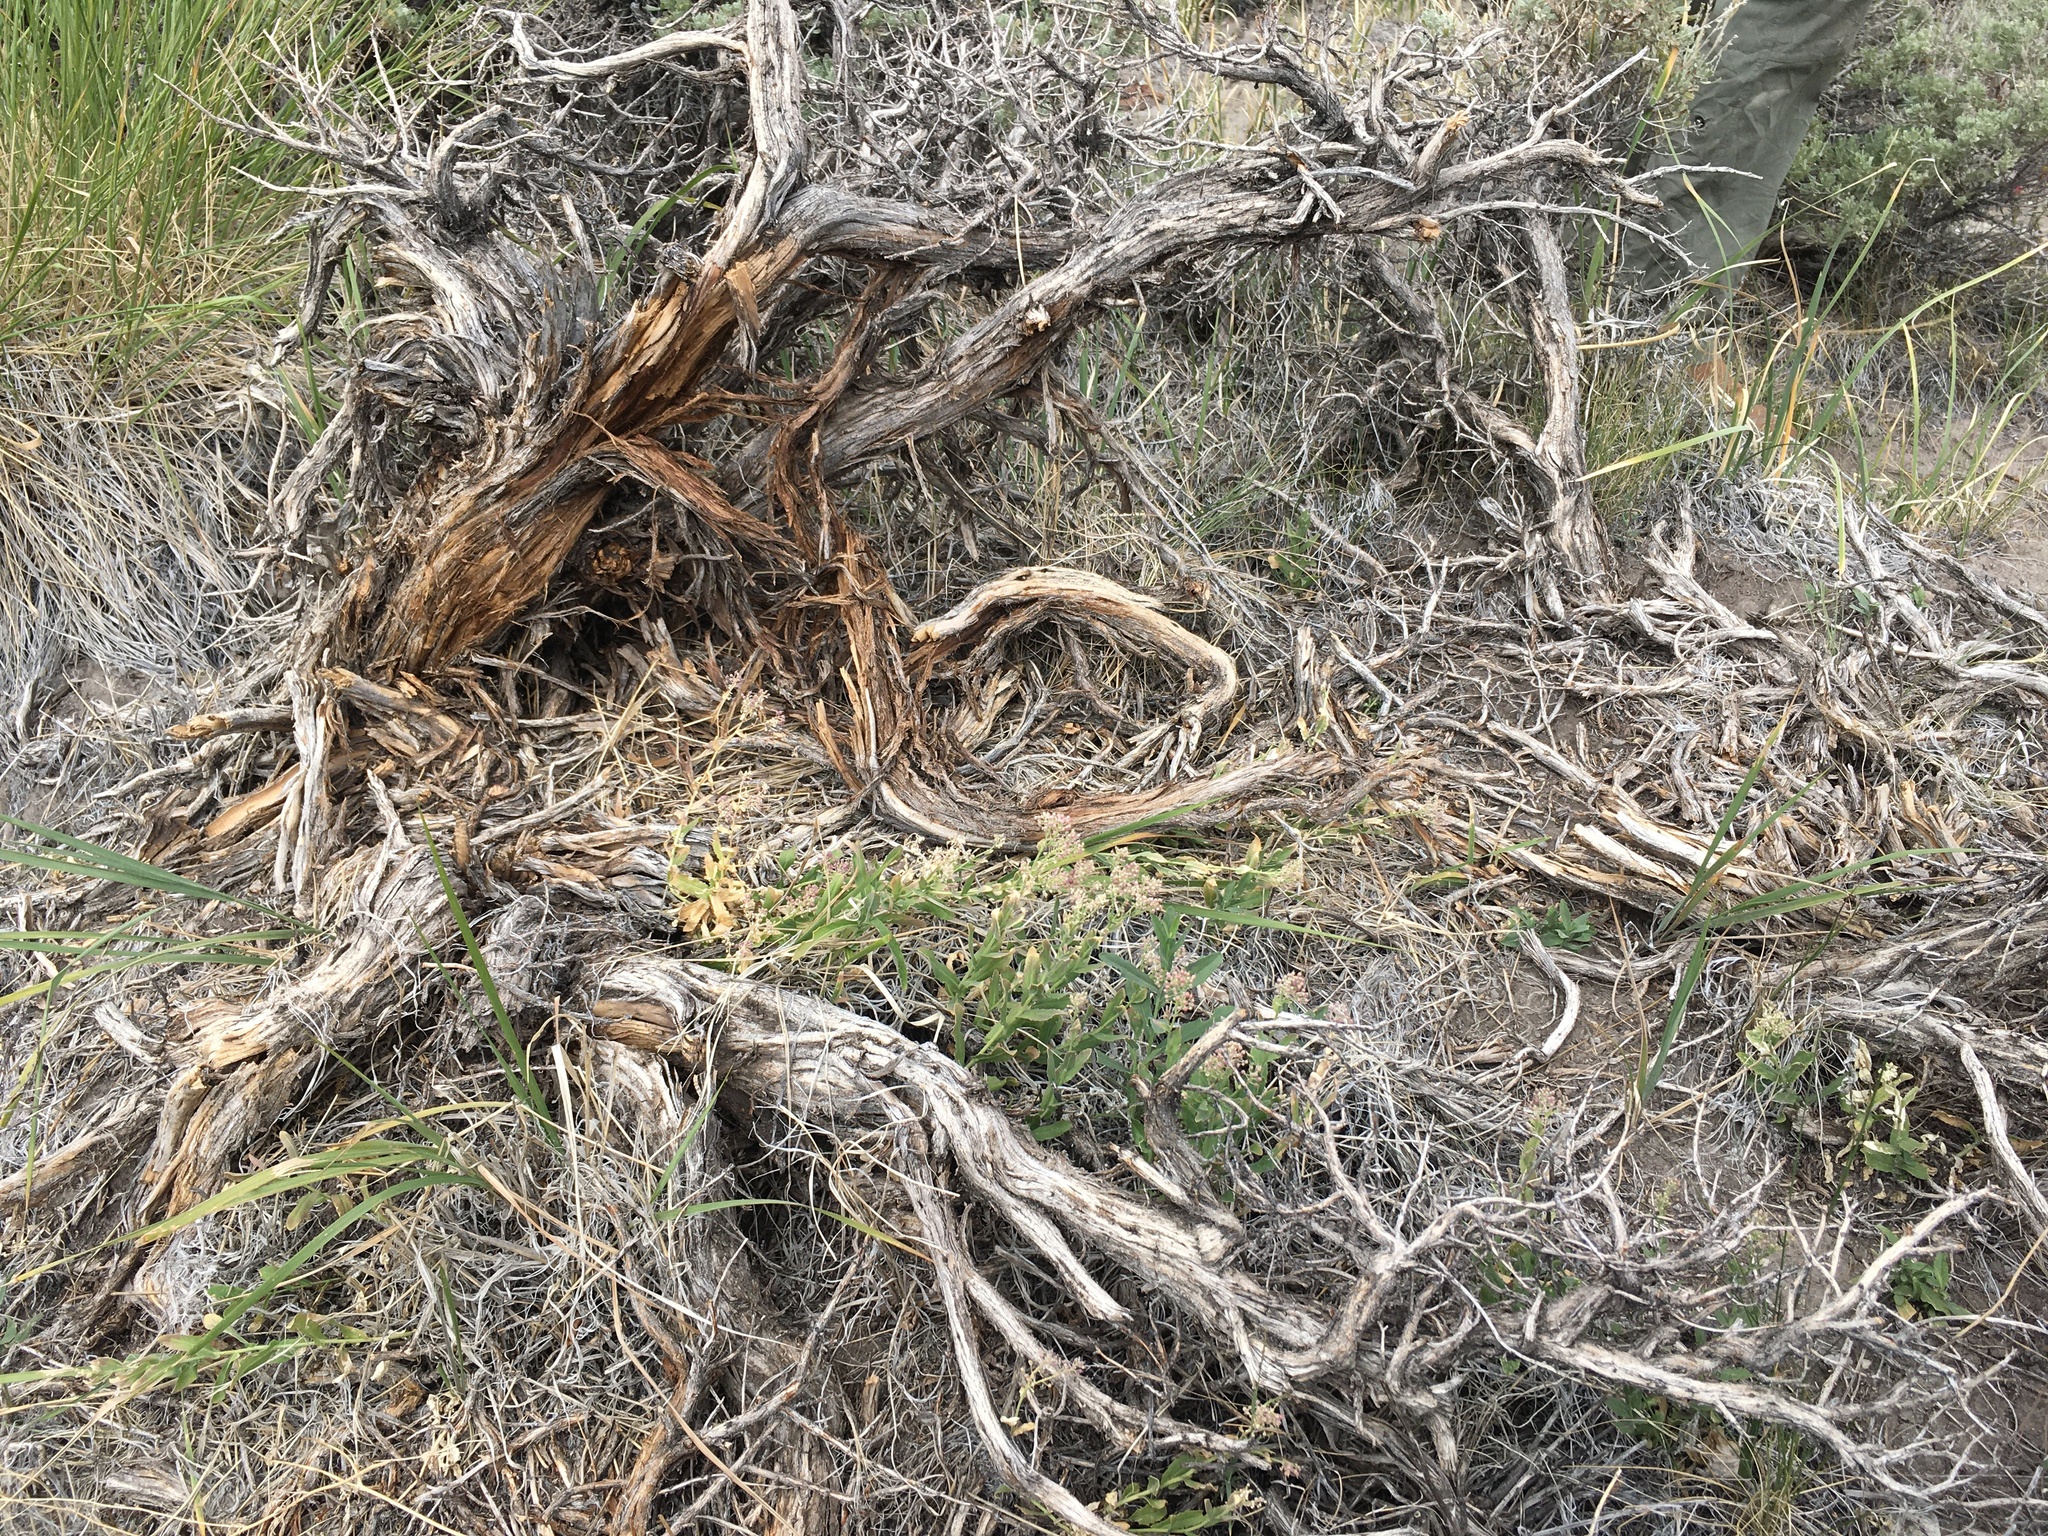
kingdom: Plantae
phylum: Tracheophyta
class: Magnoliopsida
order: Brassicales
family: Brassicaceae
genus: Lepidium
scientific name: Lepidium appelianum
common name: Hairy whitetop
